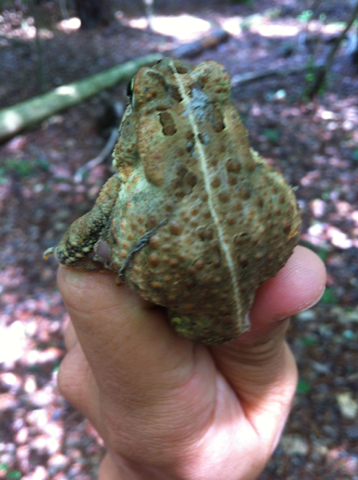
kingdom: Animalia
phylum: Chordata
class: Amphibia
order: Anura
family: Bufonidae
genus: Anaxyrus
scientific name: Anaxyrus americanus
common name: American toad
